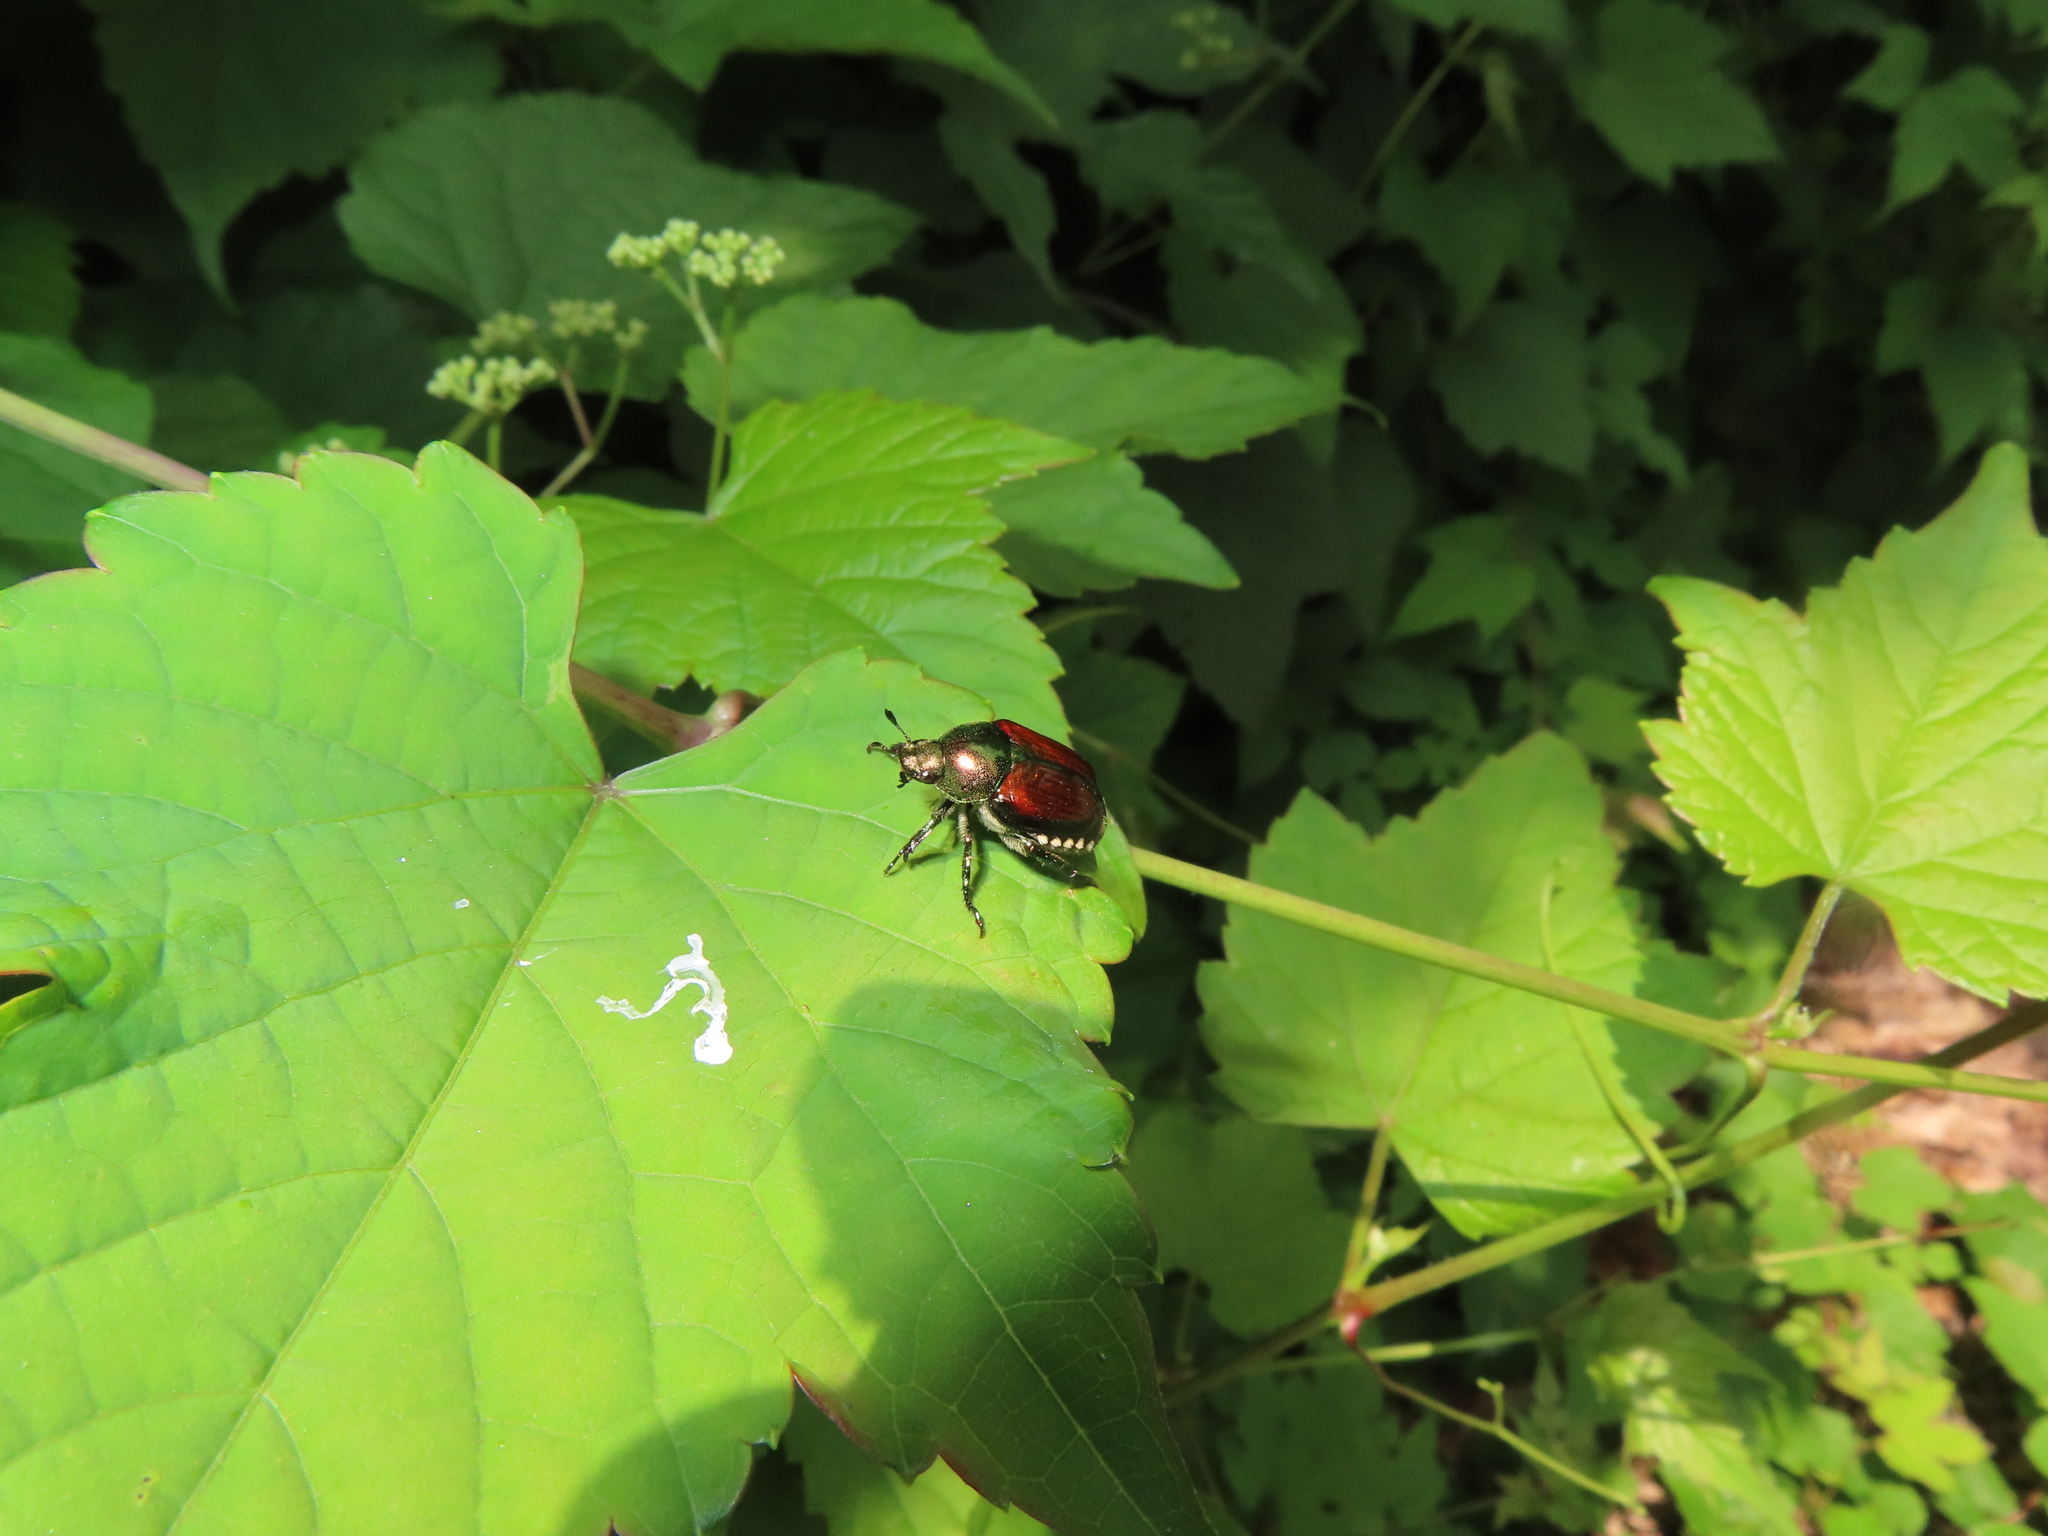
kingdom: Animalia
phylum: Arthropoda
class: Insecta
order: Coleoptera
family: Scarabaeidae
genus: Popillia
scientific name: Popillia japonica
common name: Japanese beetle
